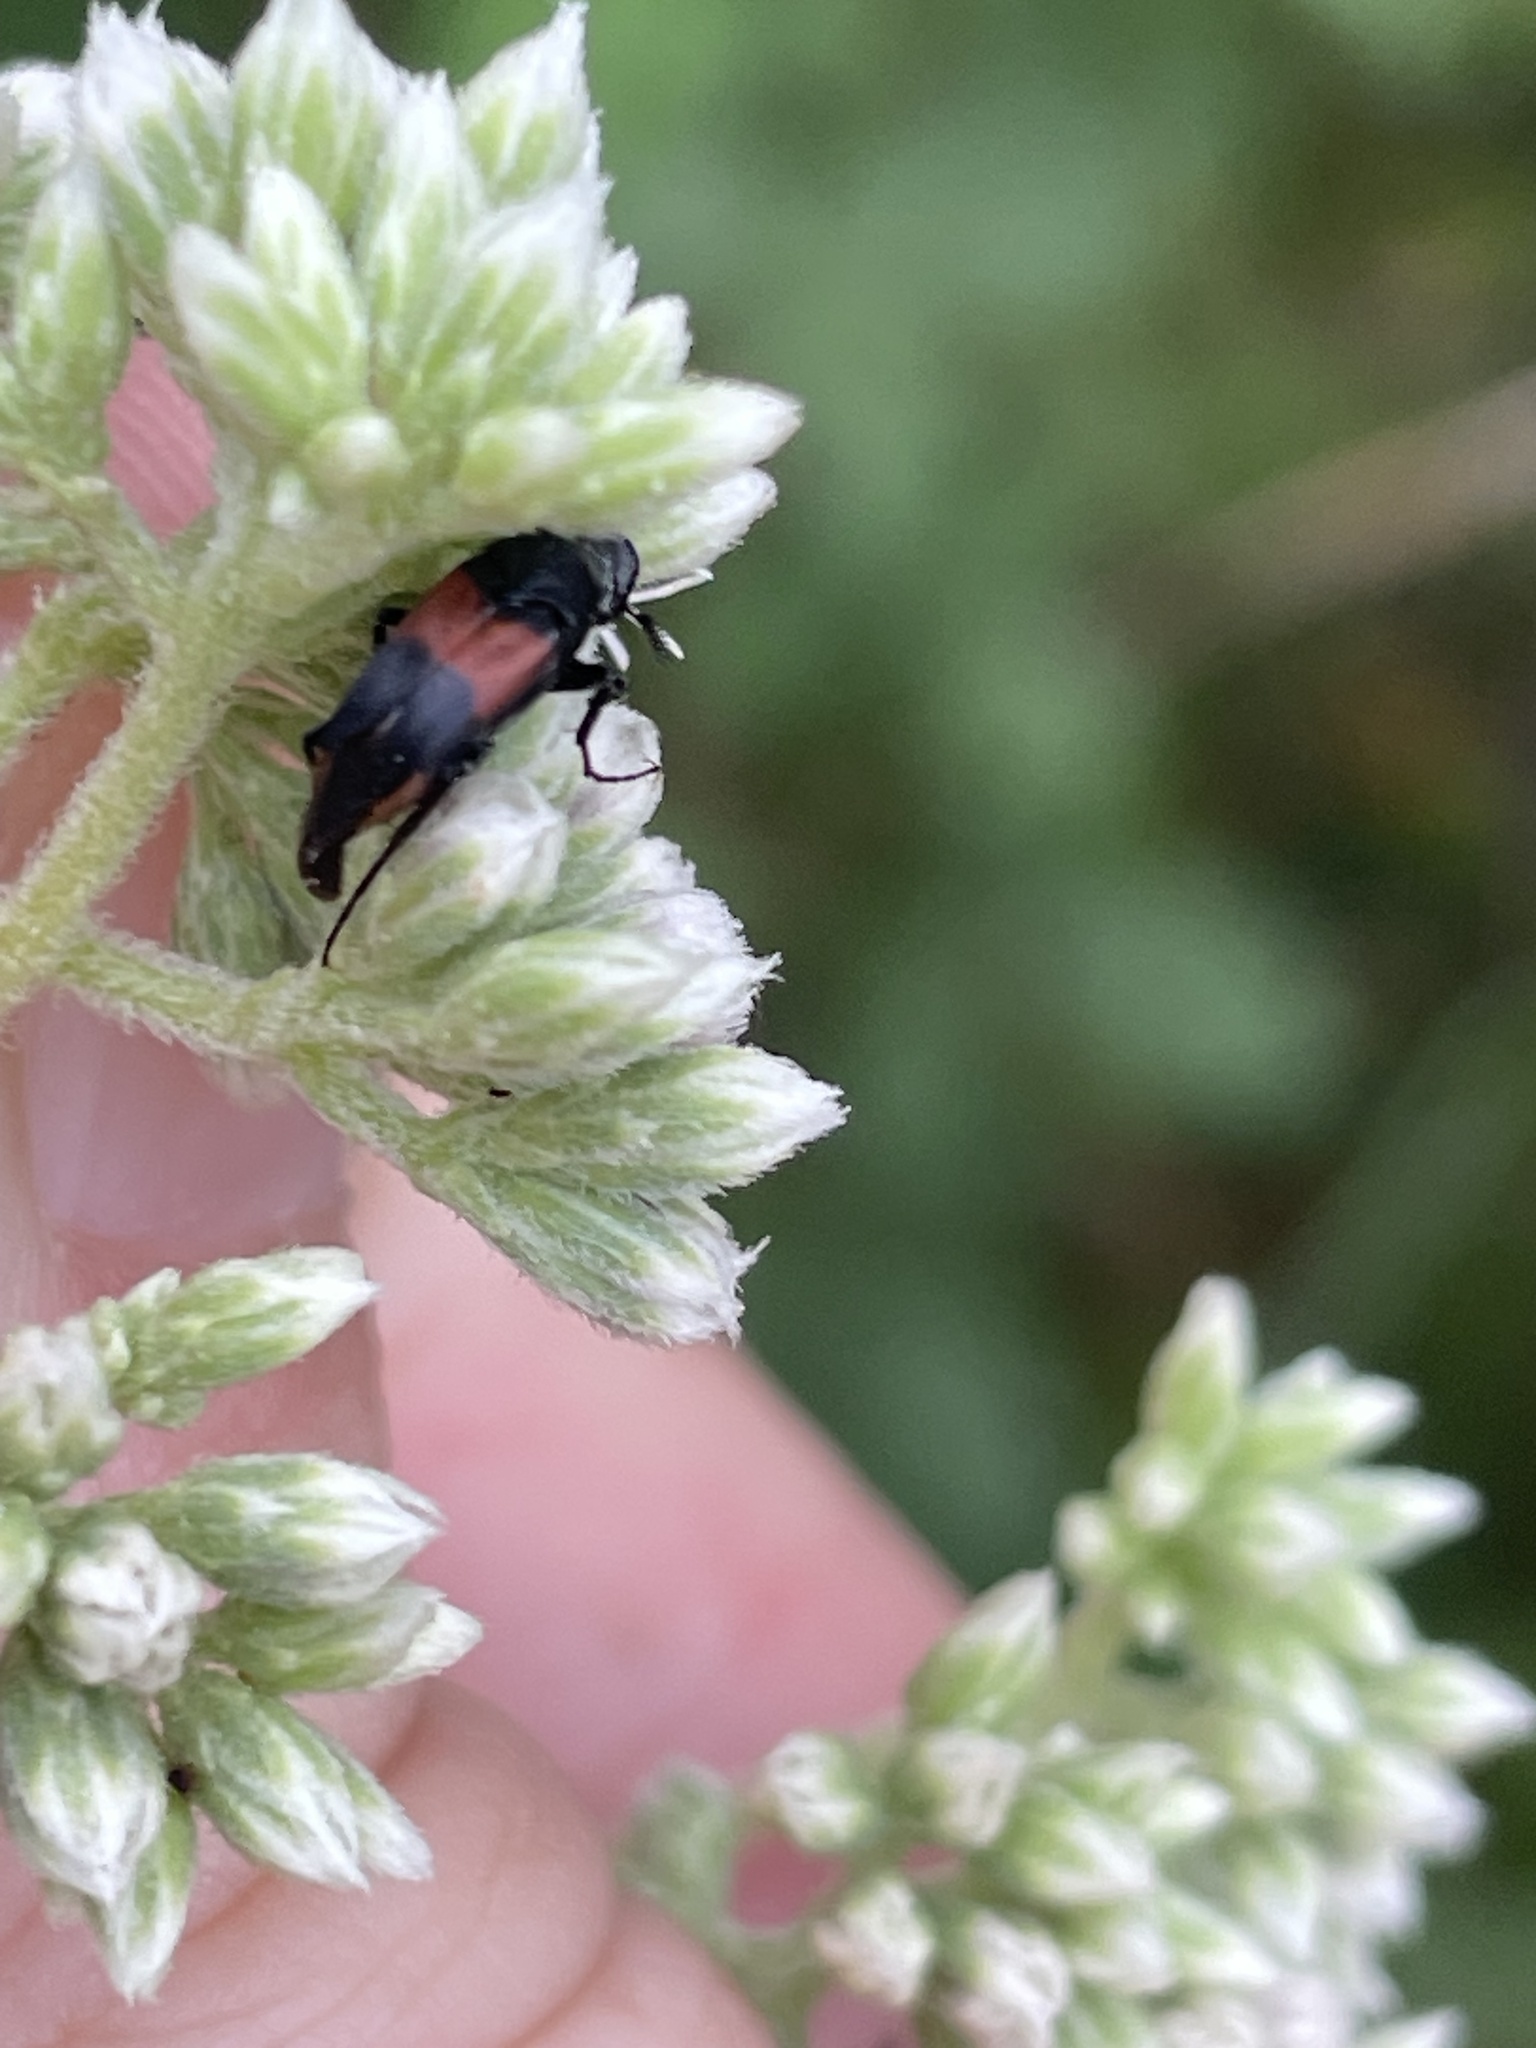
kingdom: Animalia
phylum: Arthropoda
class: Insecta
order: Coleoptera
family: Ripiphoridae
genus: Macrosiagon
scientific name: Macrosiagon cruentum
